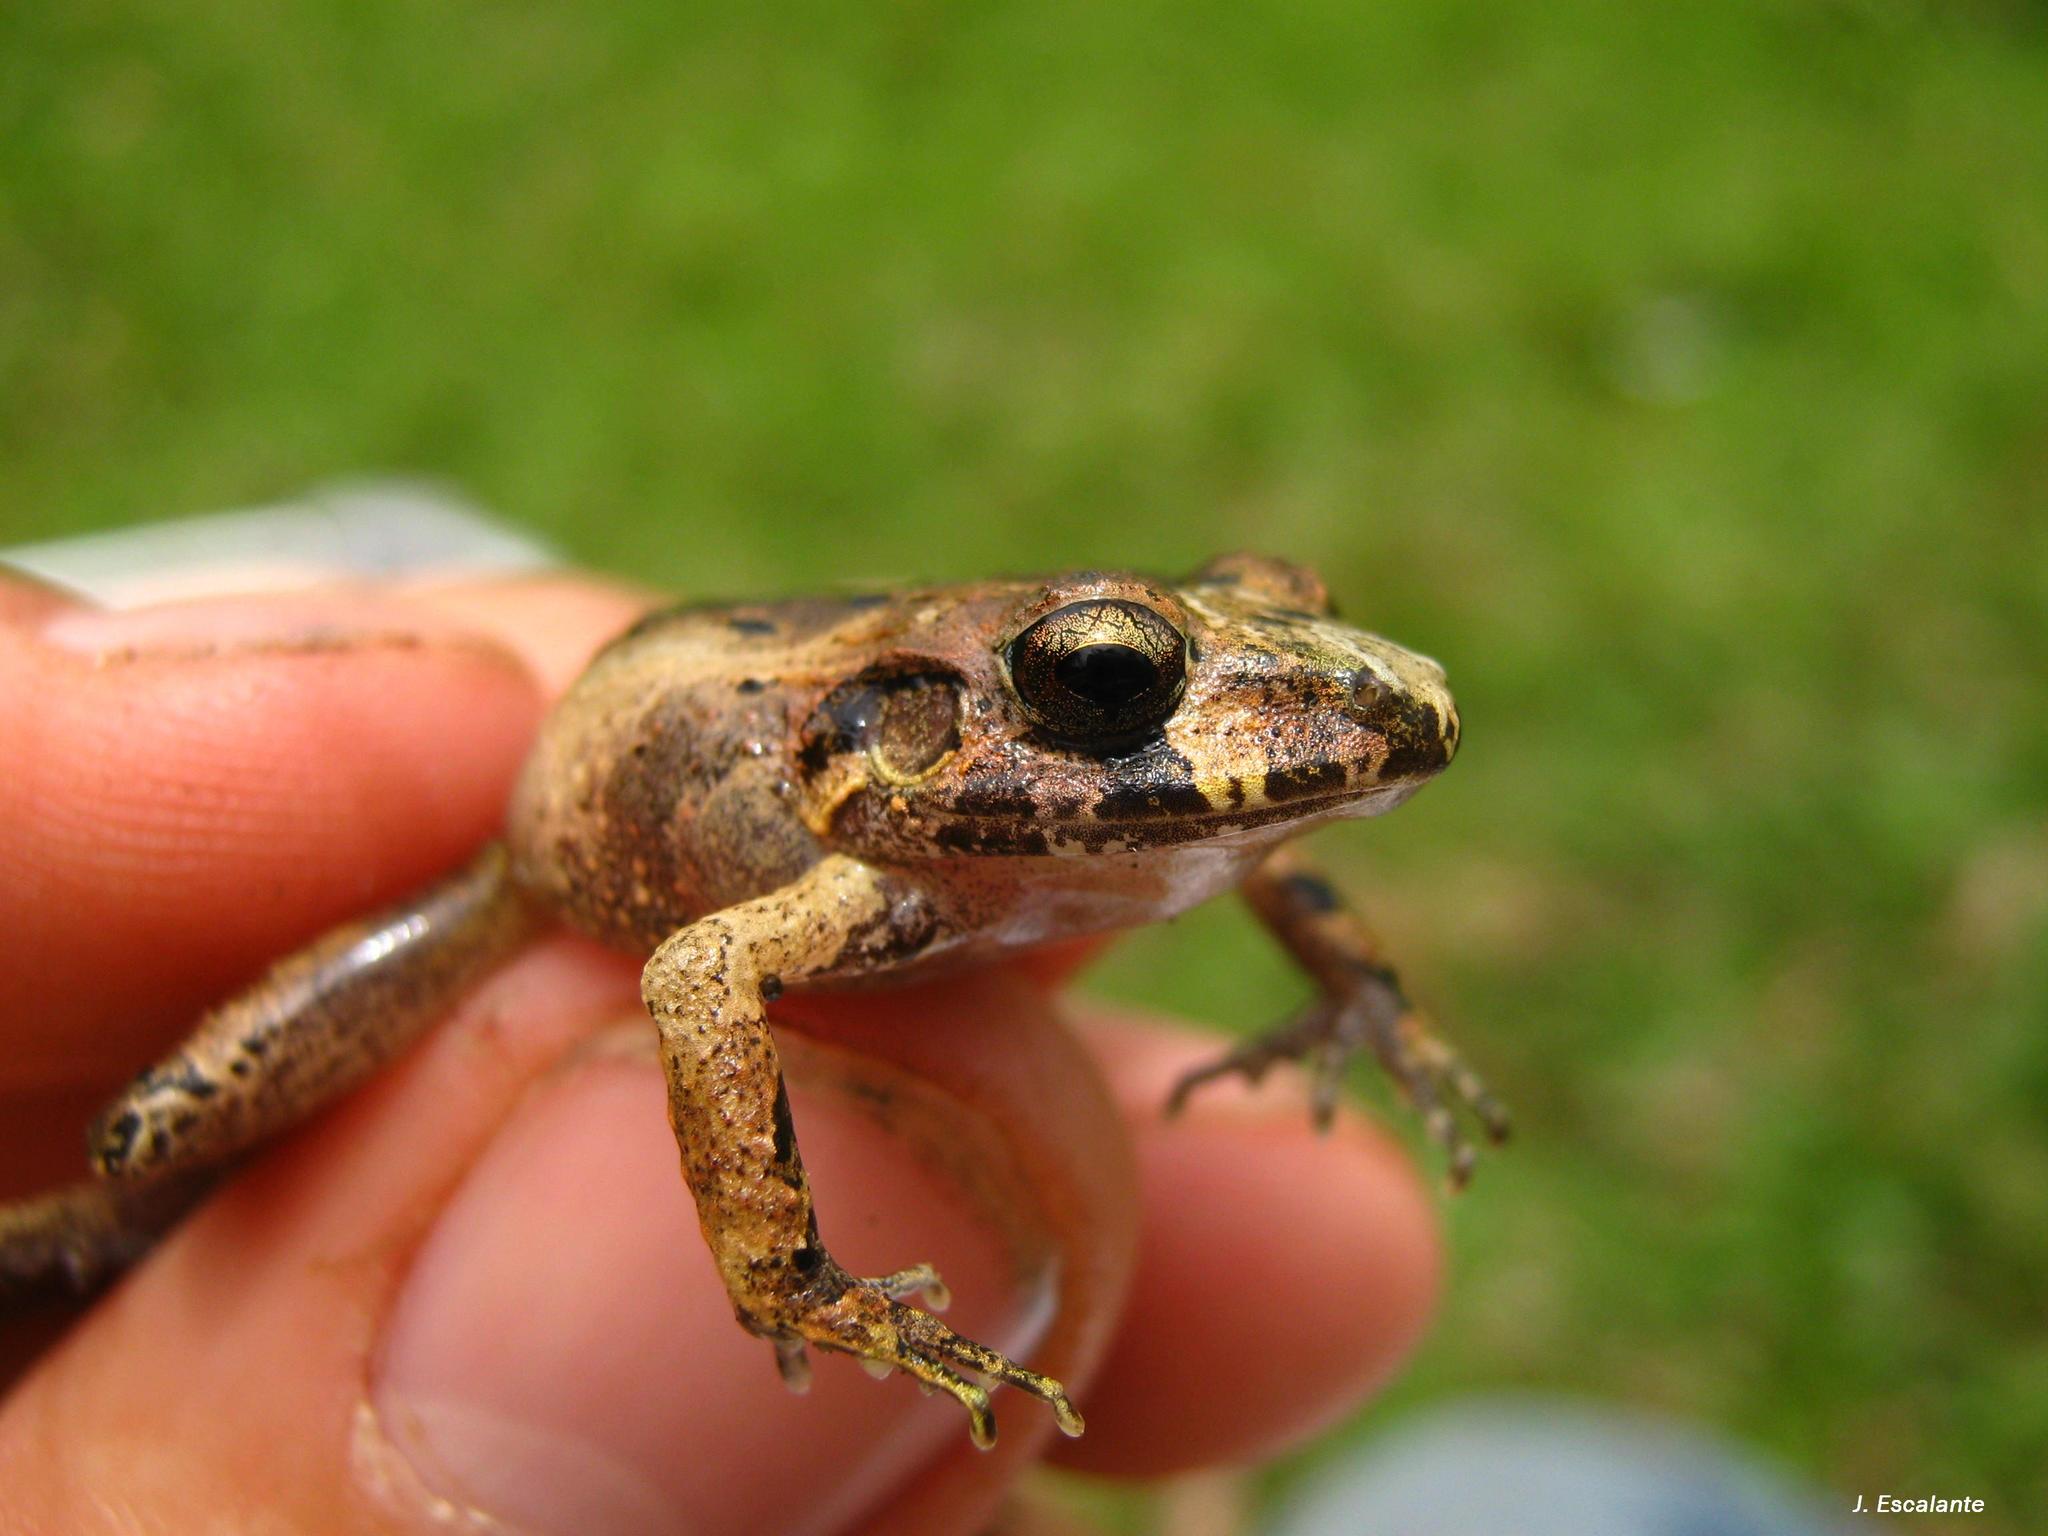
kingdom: Animalia
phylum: Chordata
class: Amphibia
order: Anura
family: Craugastoridae
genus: Craugastor
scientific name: Craugastor loki
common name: Common leaf-litter frog
